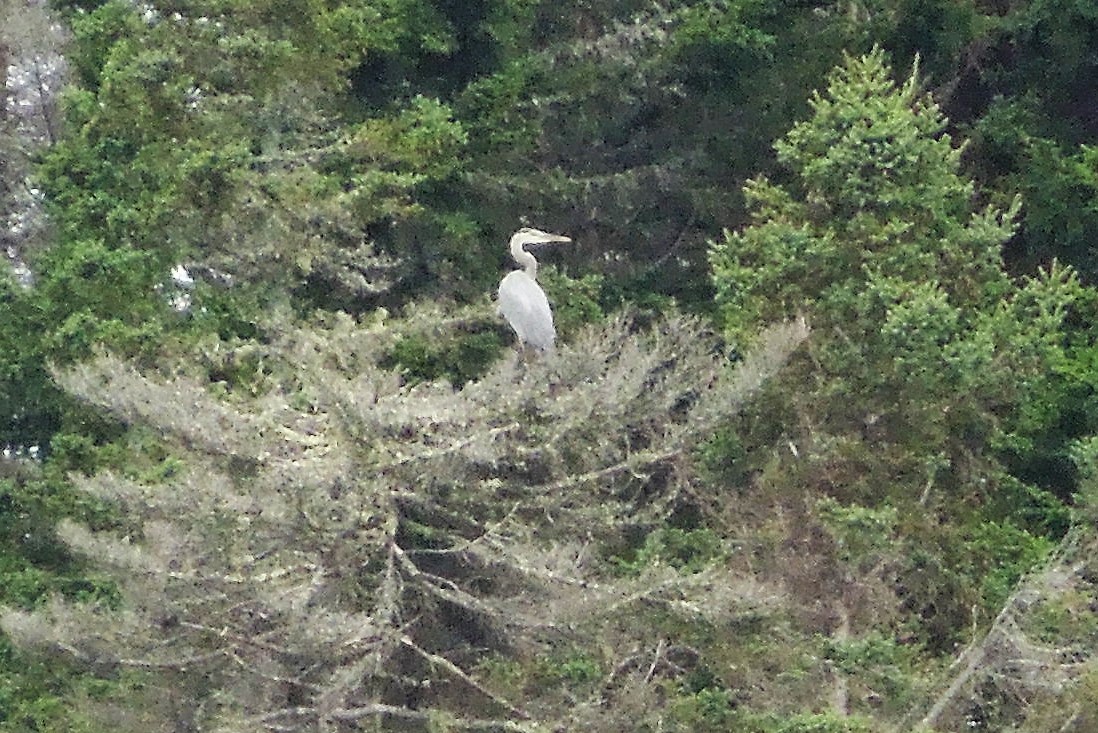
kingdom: Animalia
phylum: Chordata
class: Aves
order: Pelecaniformes
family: Ardeidae
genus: Ardea
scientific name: Ardea herodias
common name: Great blue heron
